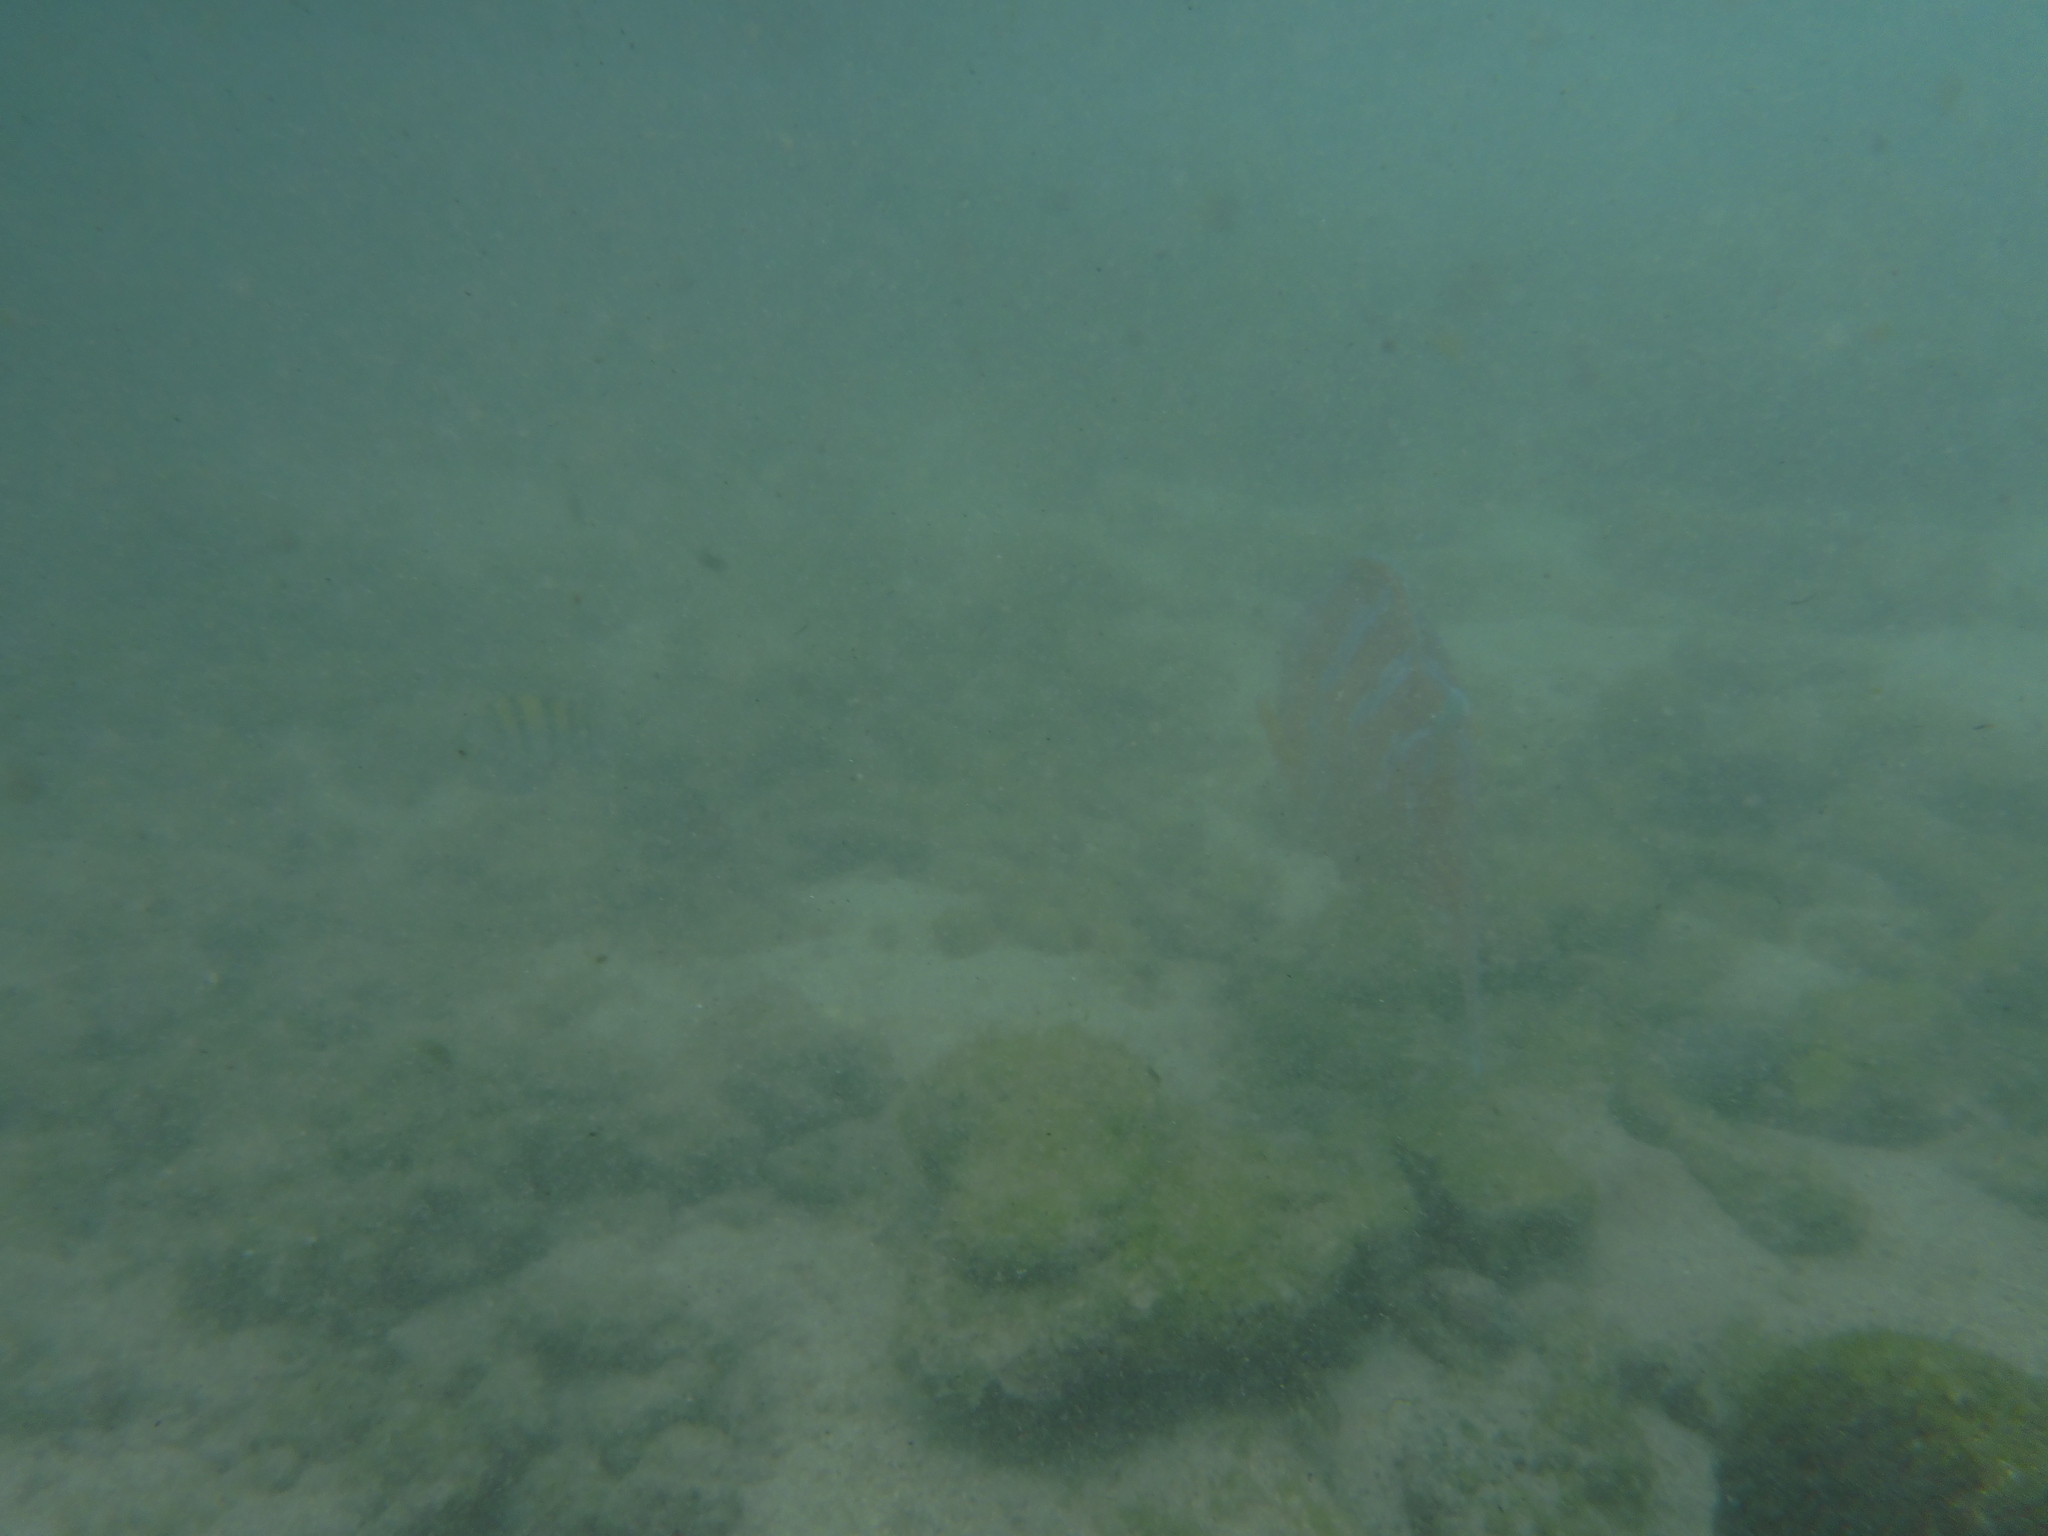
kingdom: Animalia
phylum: Chordata
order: Perciformes
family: Scaridae
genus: Scarus
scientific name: Scarus ghobban
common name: Blue-barred parrotfish
